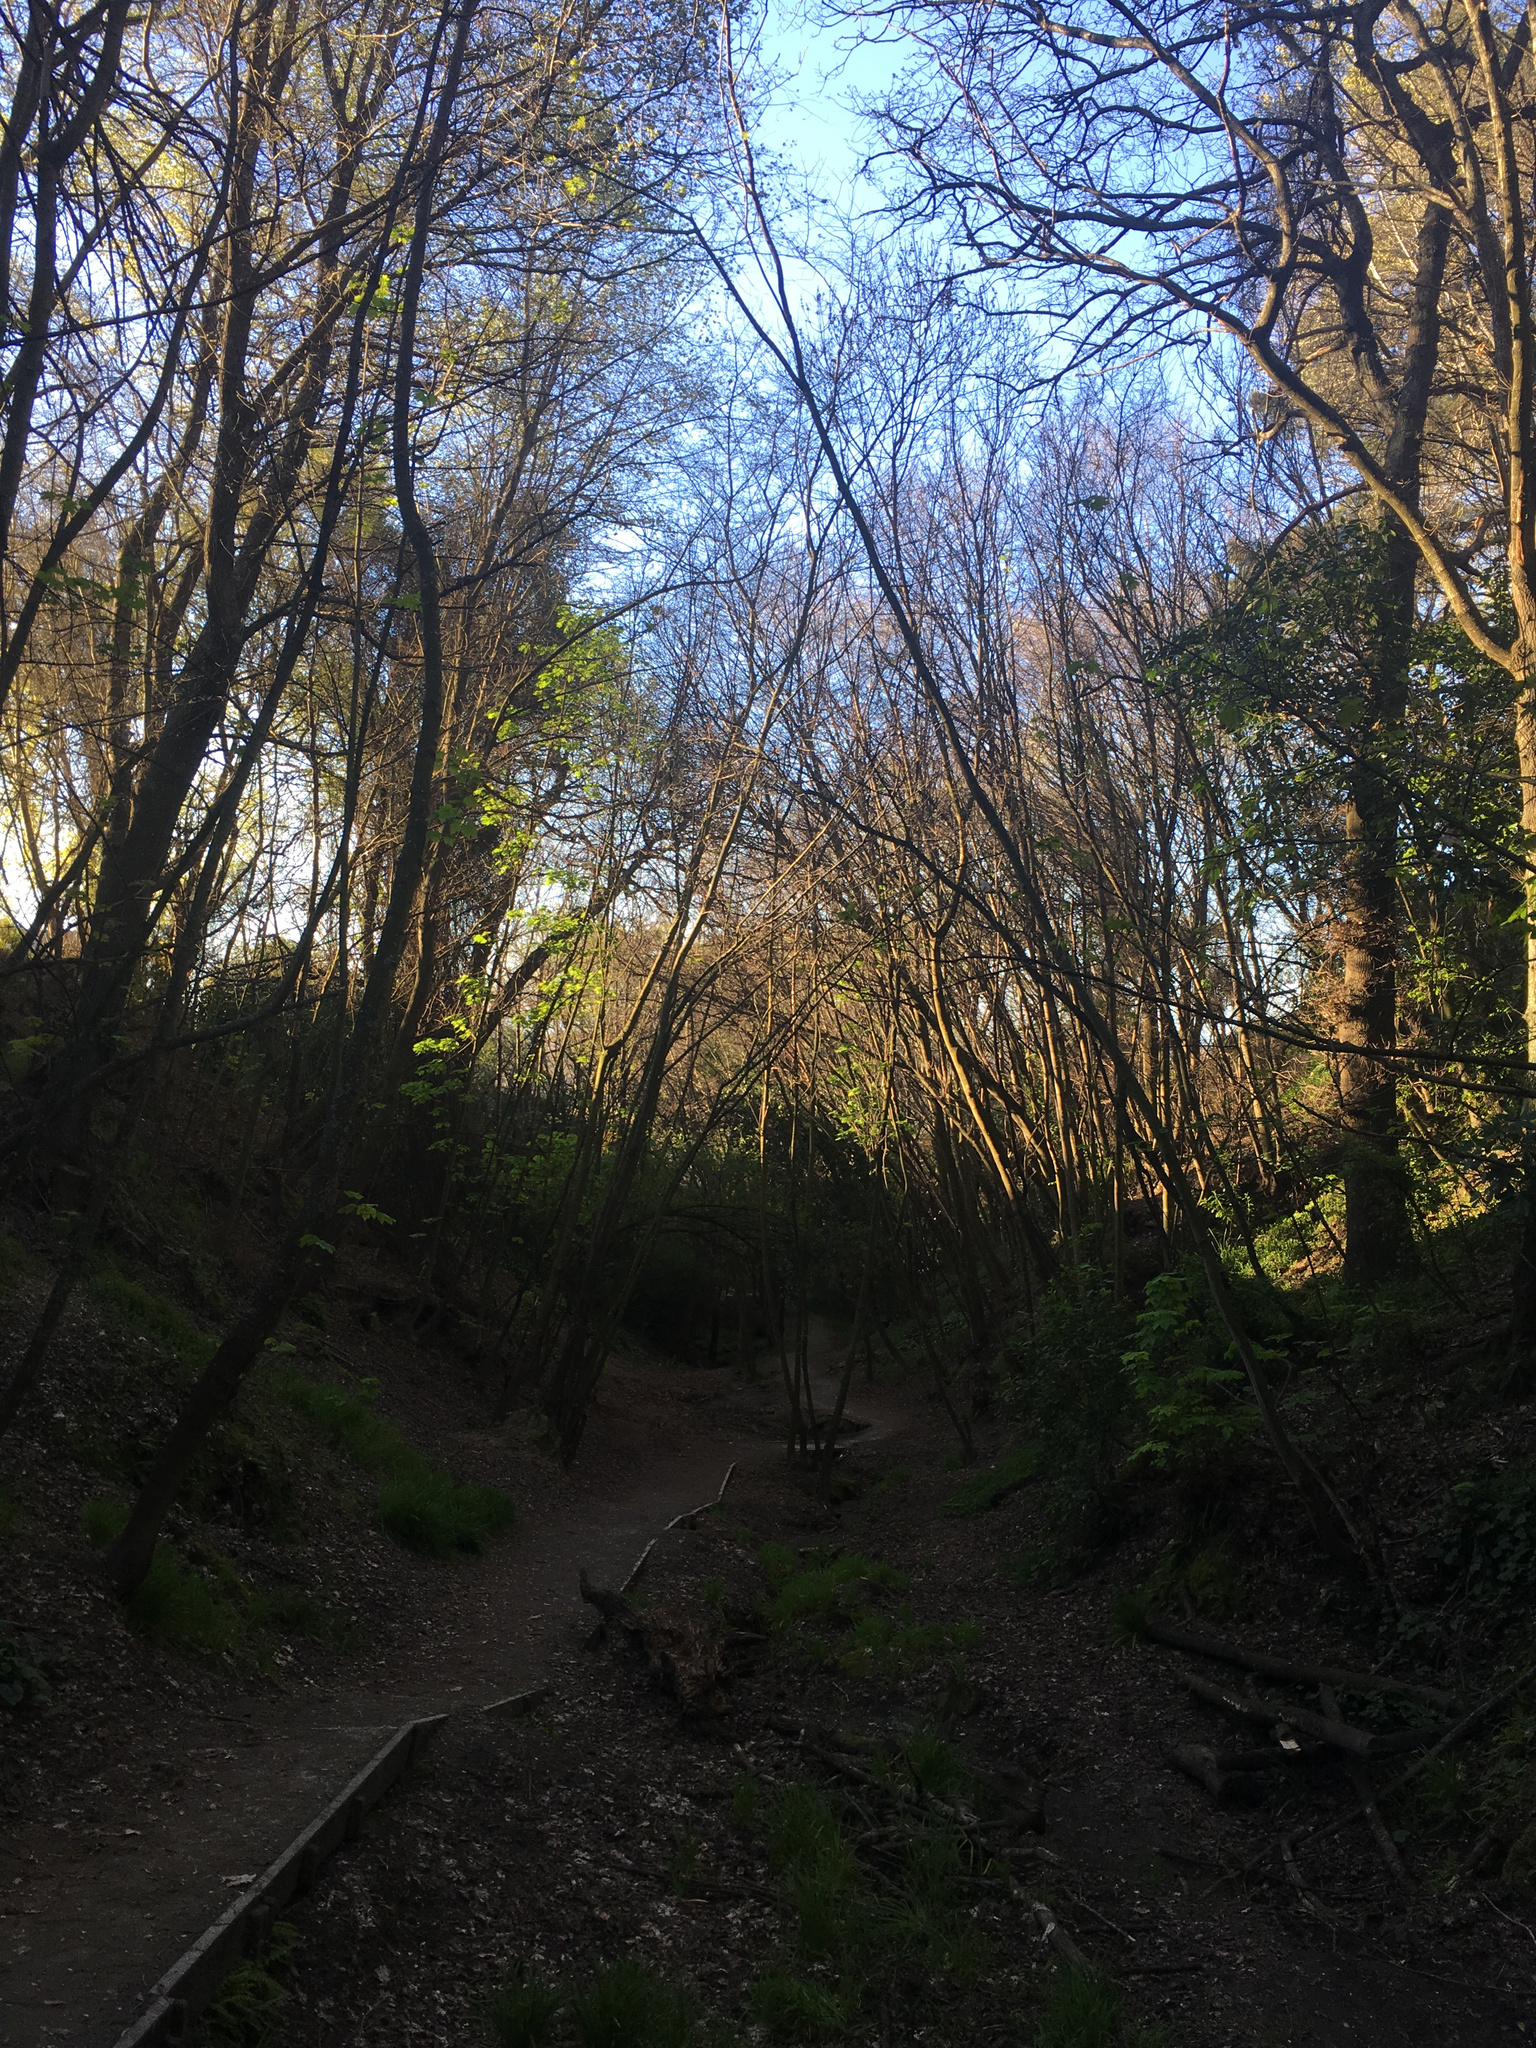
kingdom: Plantae
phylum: Tracheophyta
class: Magnoliopsida
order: Sapindales
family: Sapindaceae
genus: Acer
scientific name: Acer pseudoplatanus
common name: Sycamore
